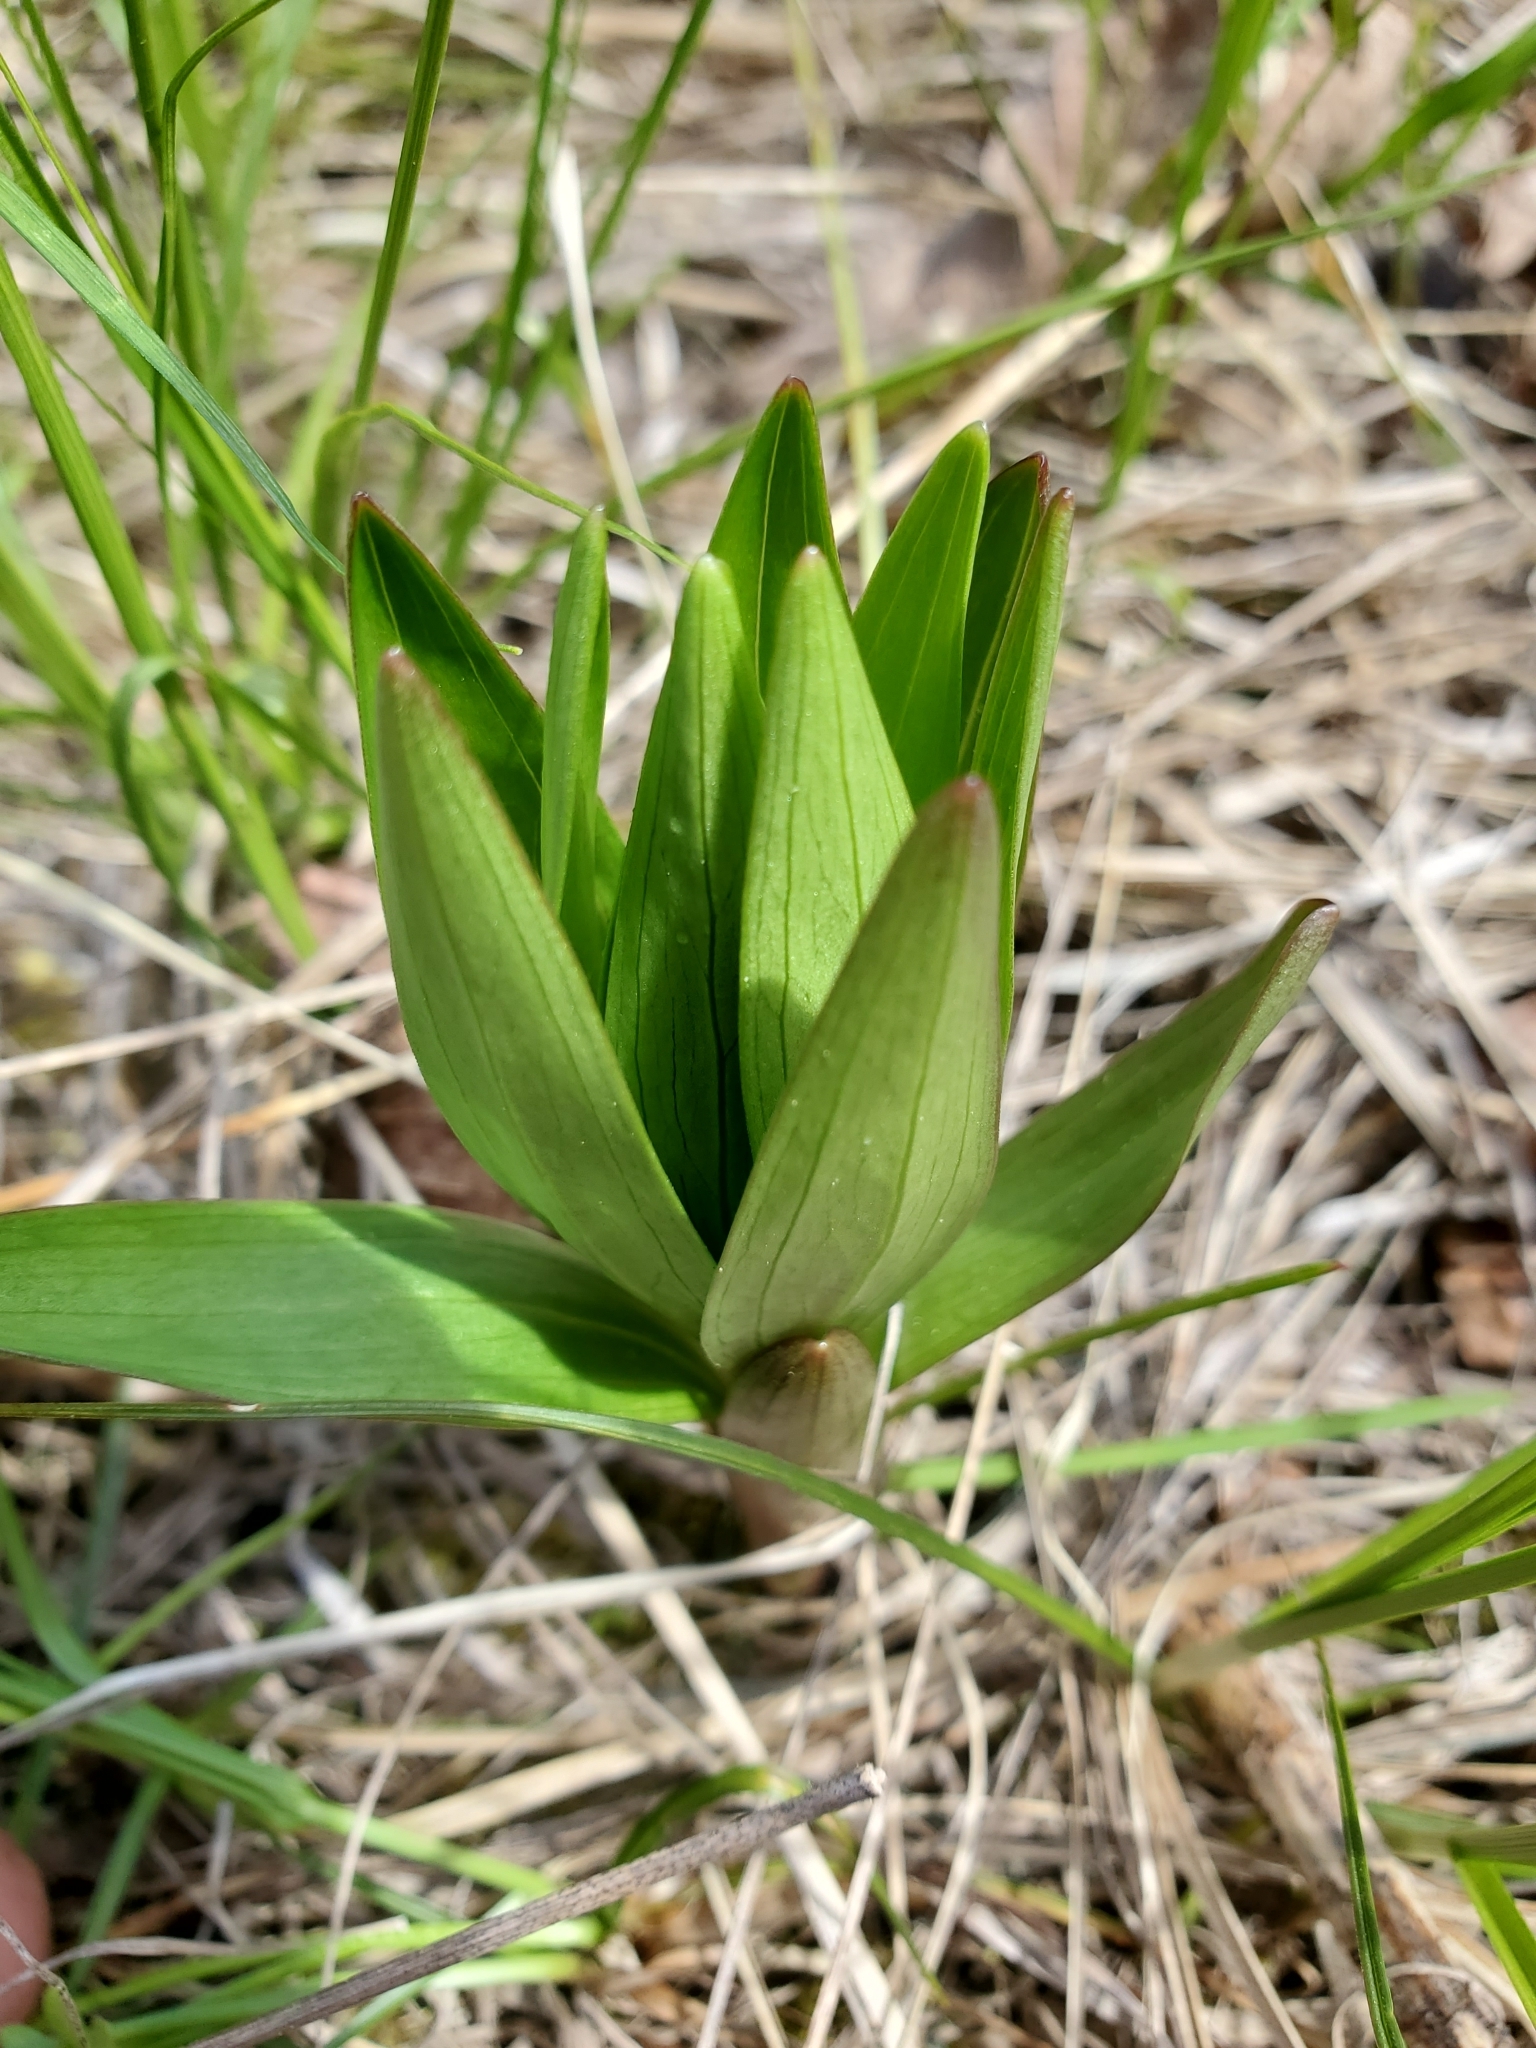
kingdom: Plantae
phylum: Tracheophyta
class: Liliopsida
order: Liliales
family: Liliaceae
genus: Lilium
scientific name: Lilium columbianum
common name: Columbia lily
